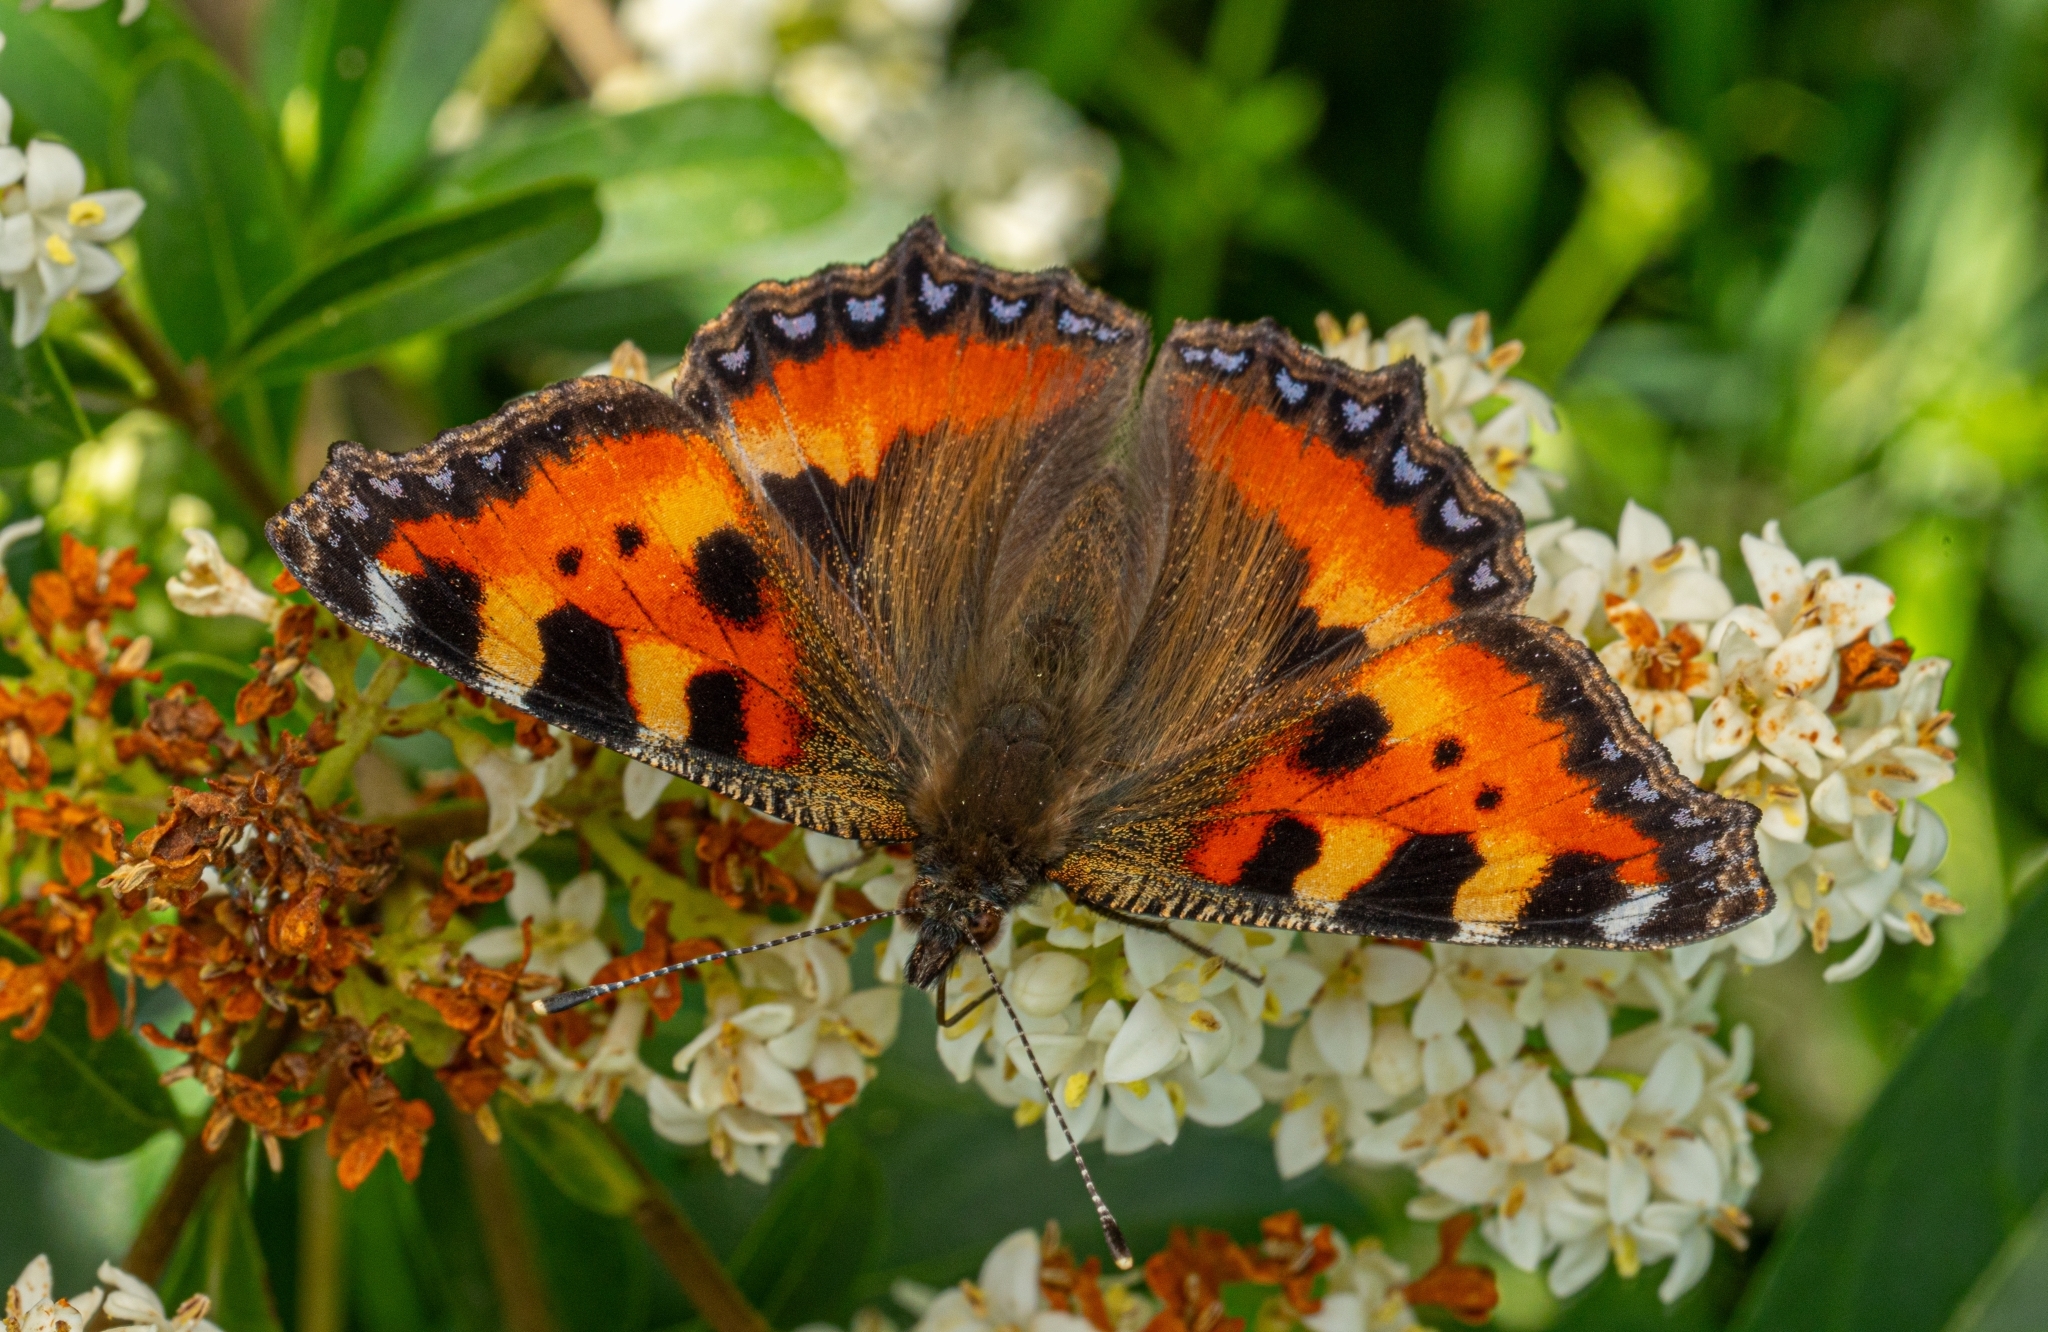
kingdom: Animalia
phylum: Arthropoda
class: Insecta
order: Lepidoptera
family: Nymphalidae
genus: Aglais
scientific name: Aglais urticae
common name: Small tortoiseshell
